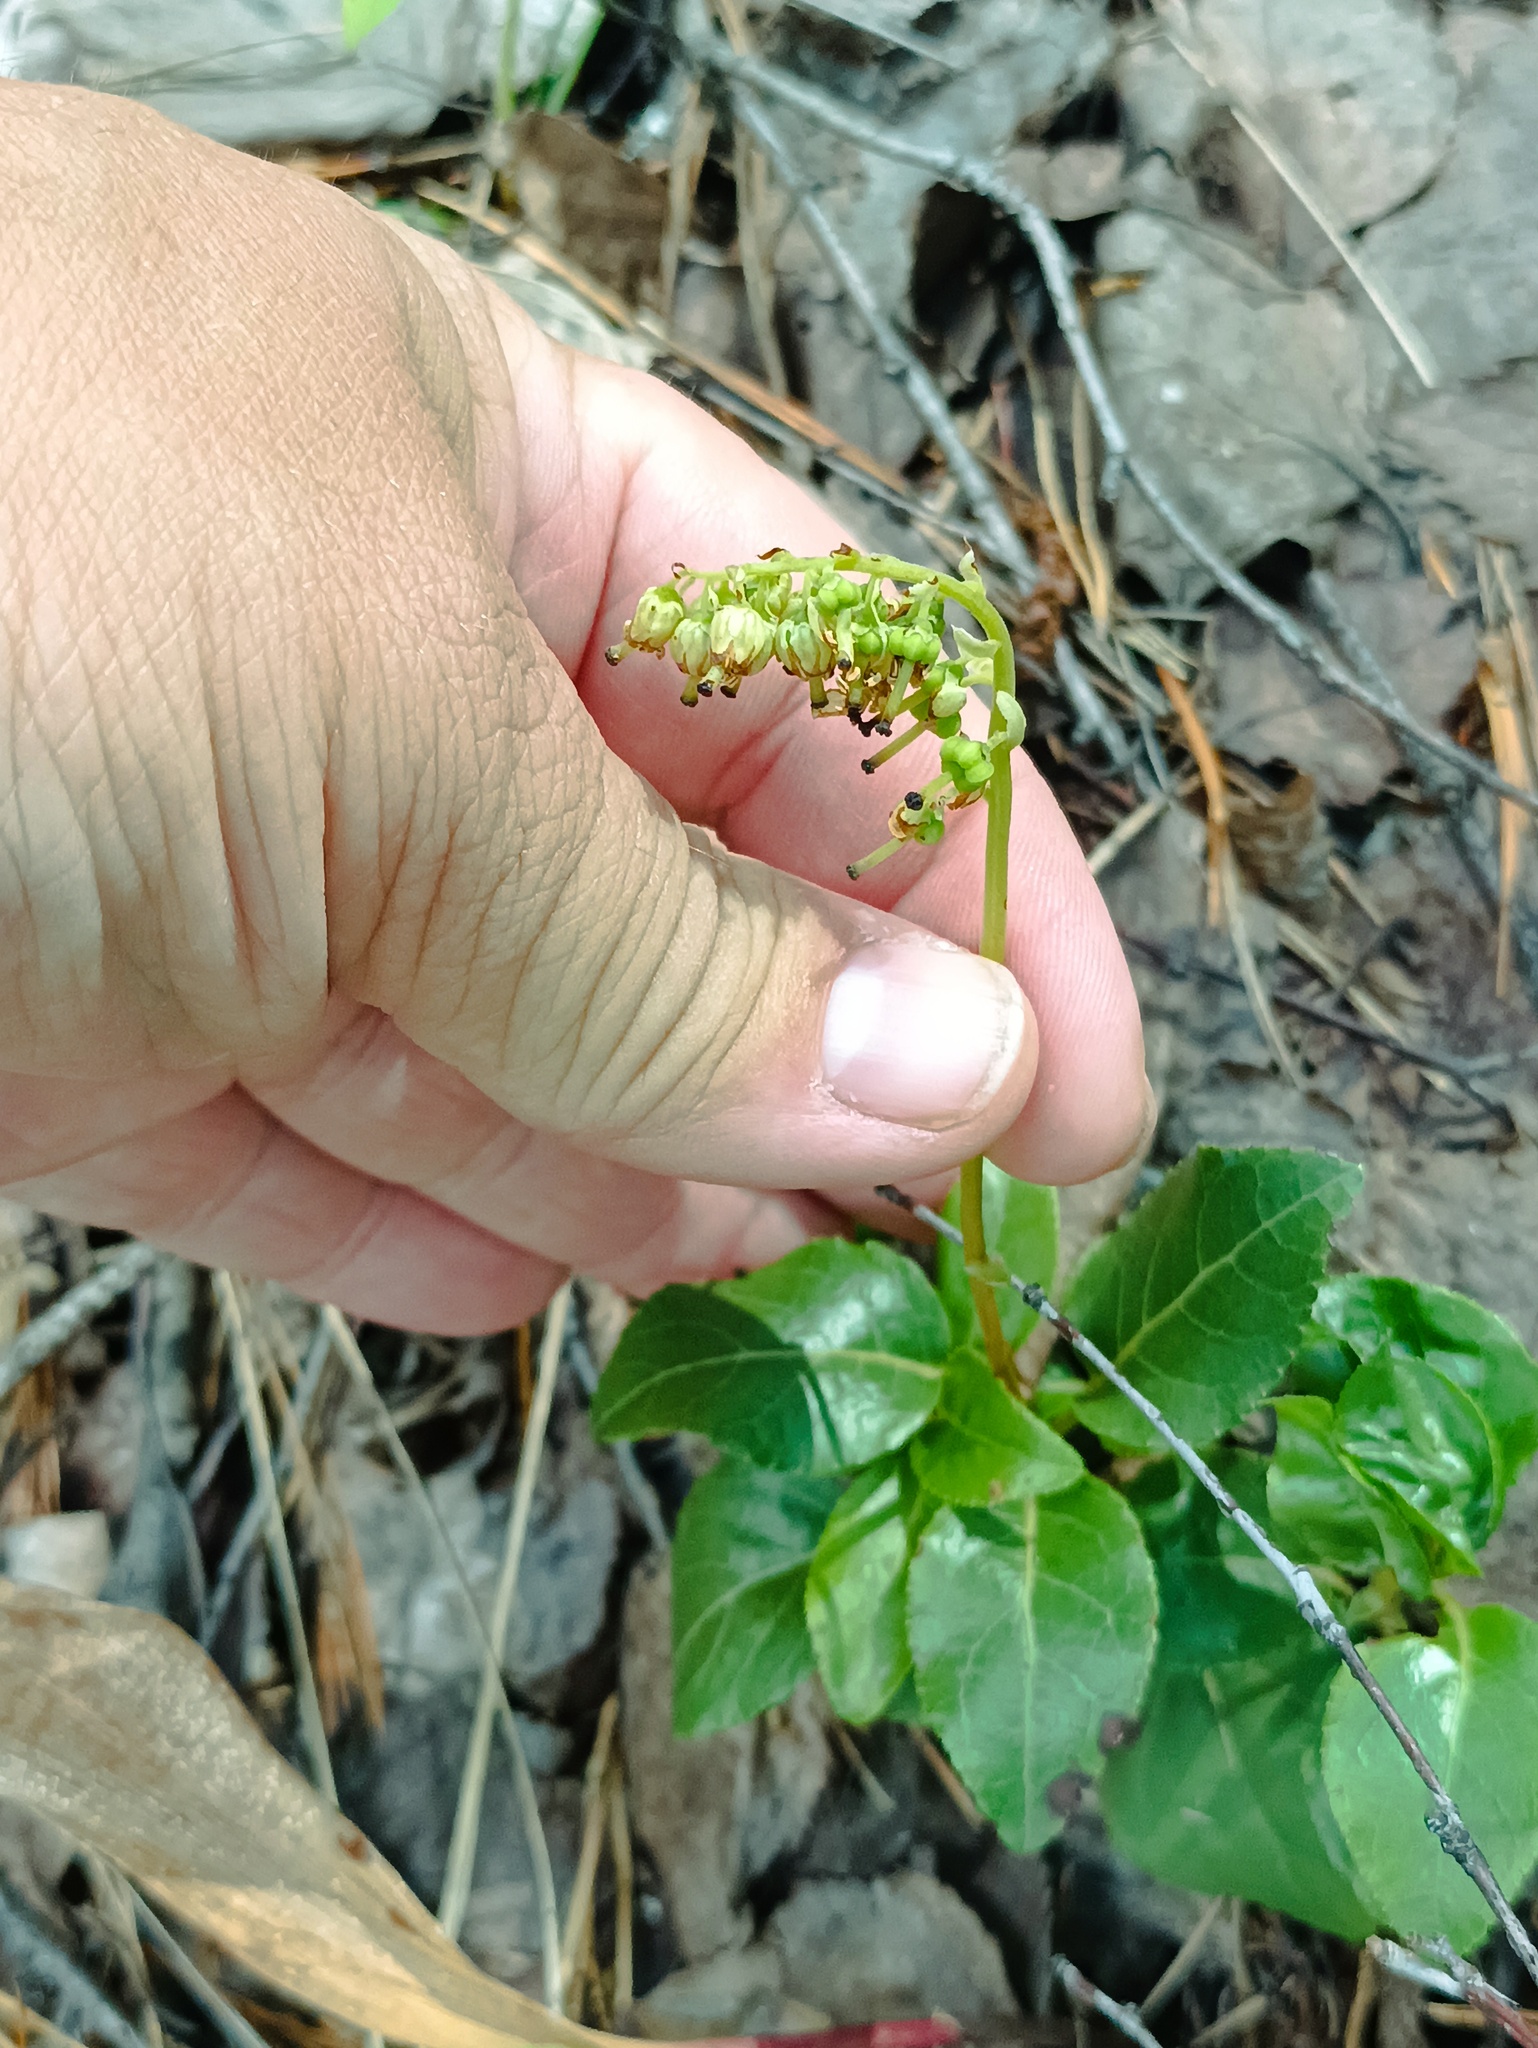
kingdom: Plantae
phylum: Tracheophyta
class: Magnoliopsida
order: Ericales
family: Ericaceae
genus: Orthilia
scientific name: Orthilia secunda
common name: One-sided orthilia
